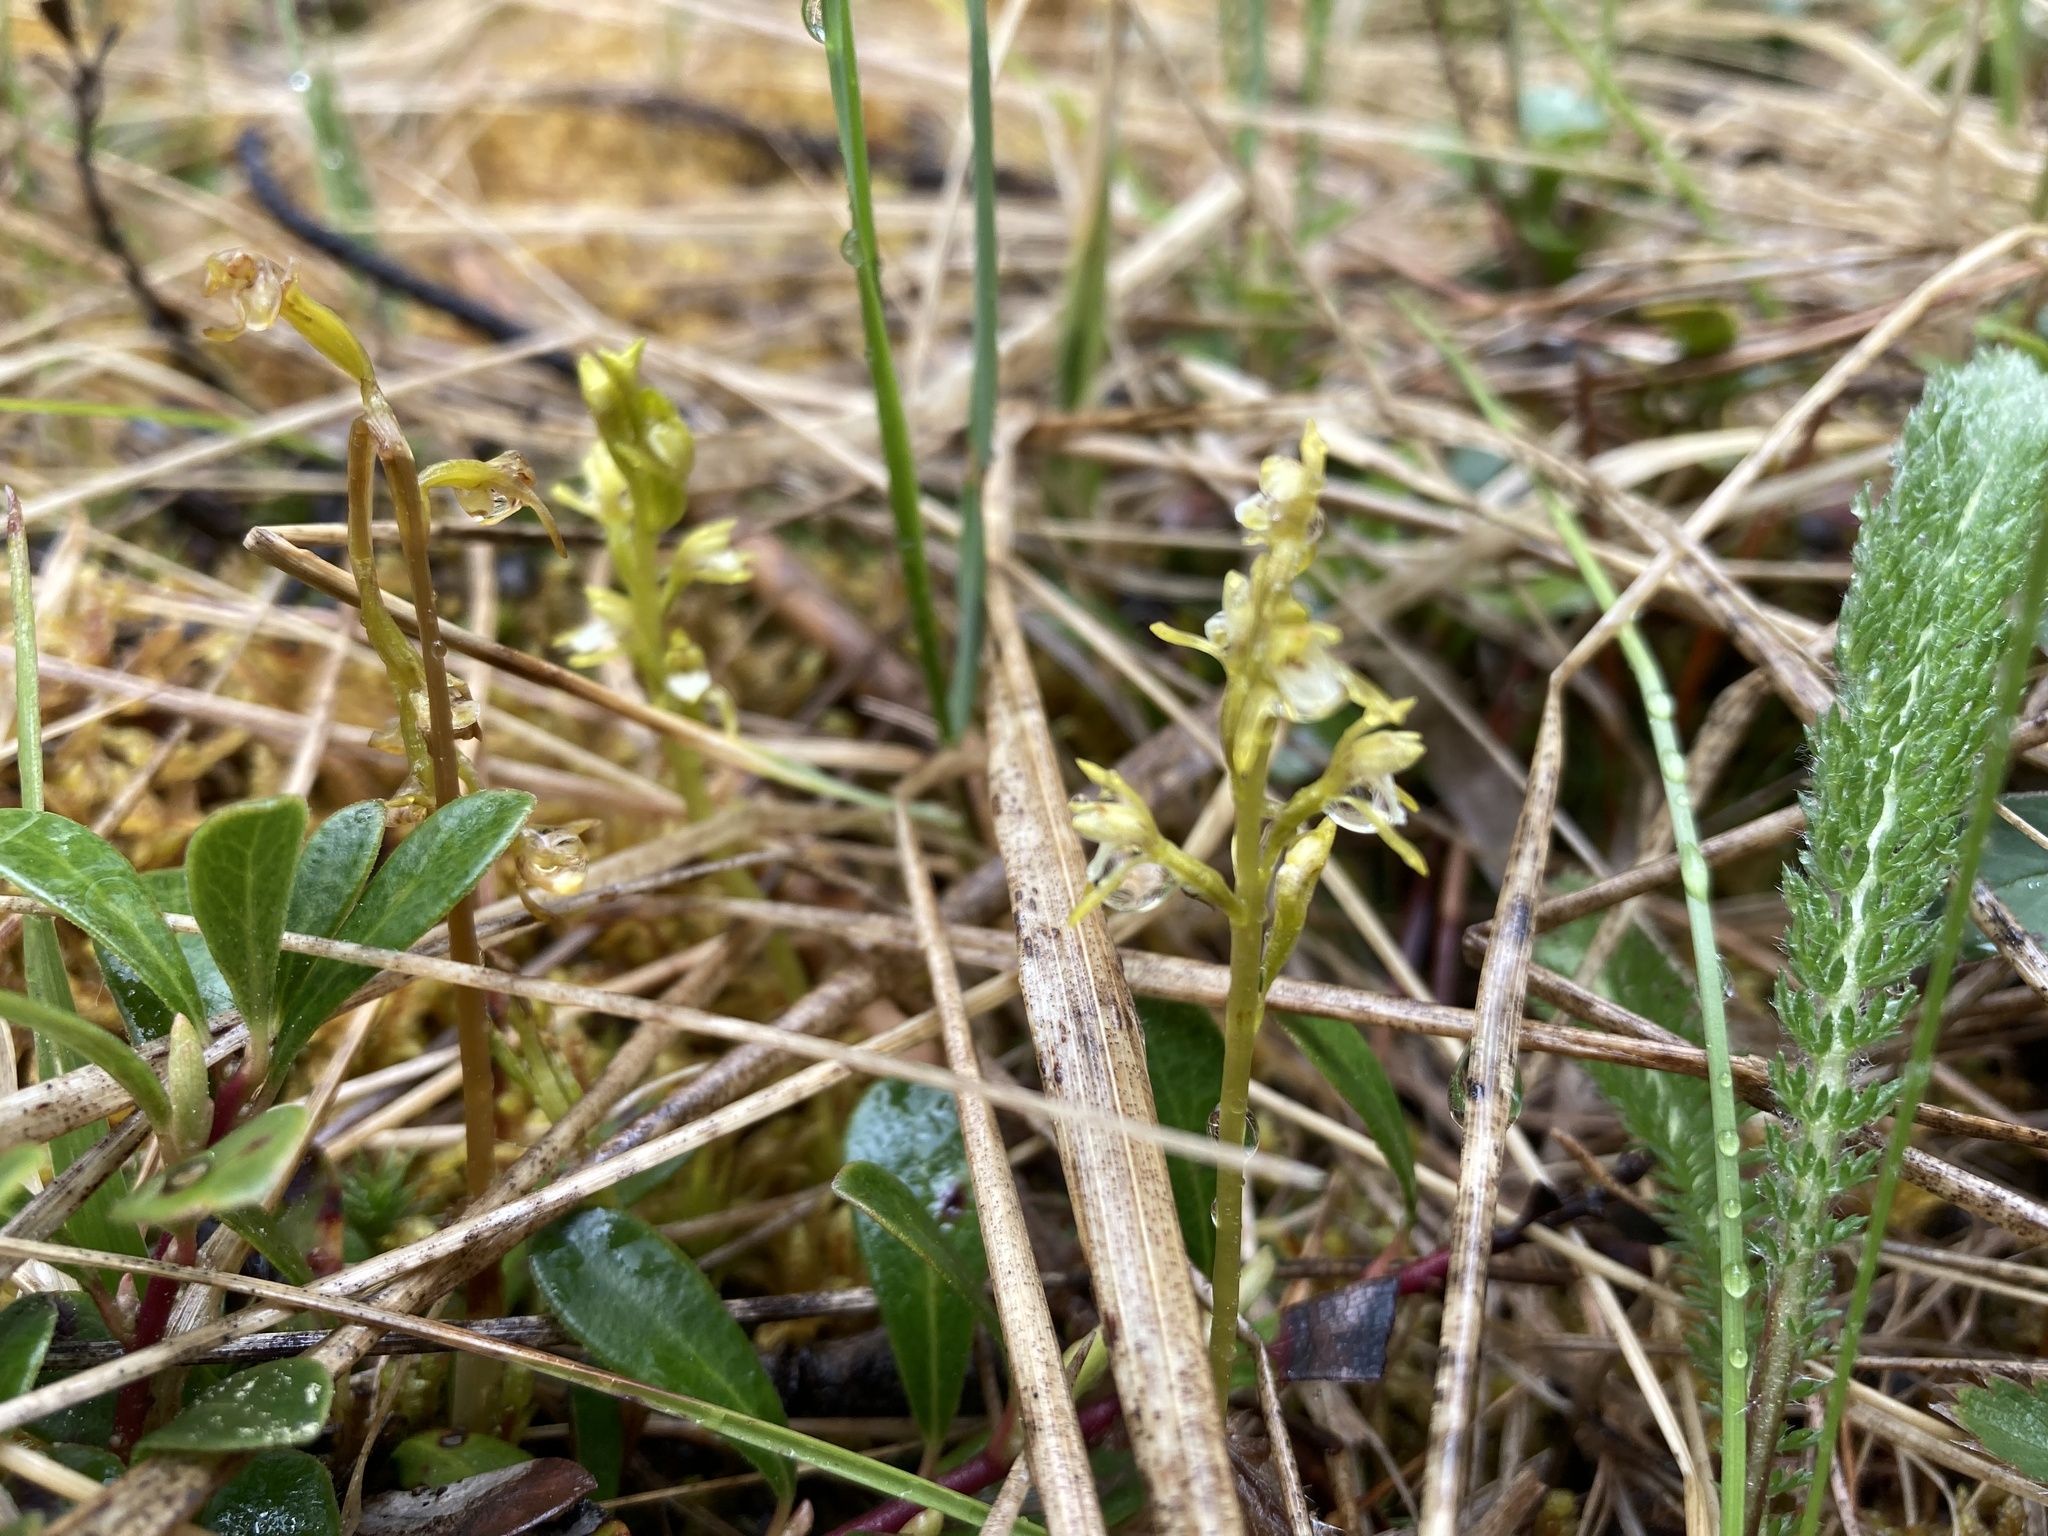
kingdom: Plantae
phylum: Tracheophyta
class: Liliopsida
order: Asparagales
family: Orchidaceae
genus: Corallorhiza
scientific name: Corallorhiza trifida
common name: Yellow coralroot
